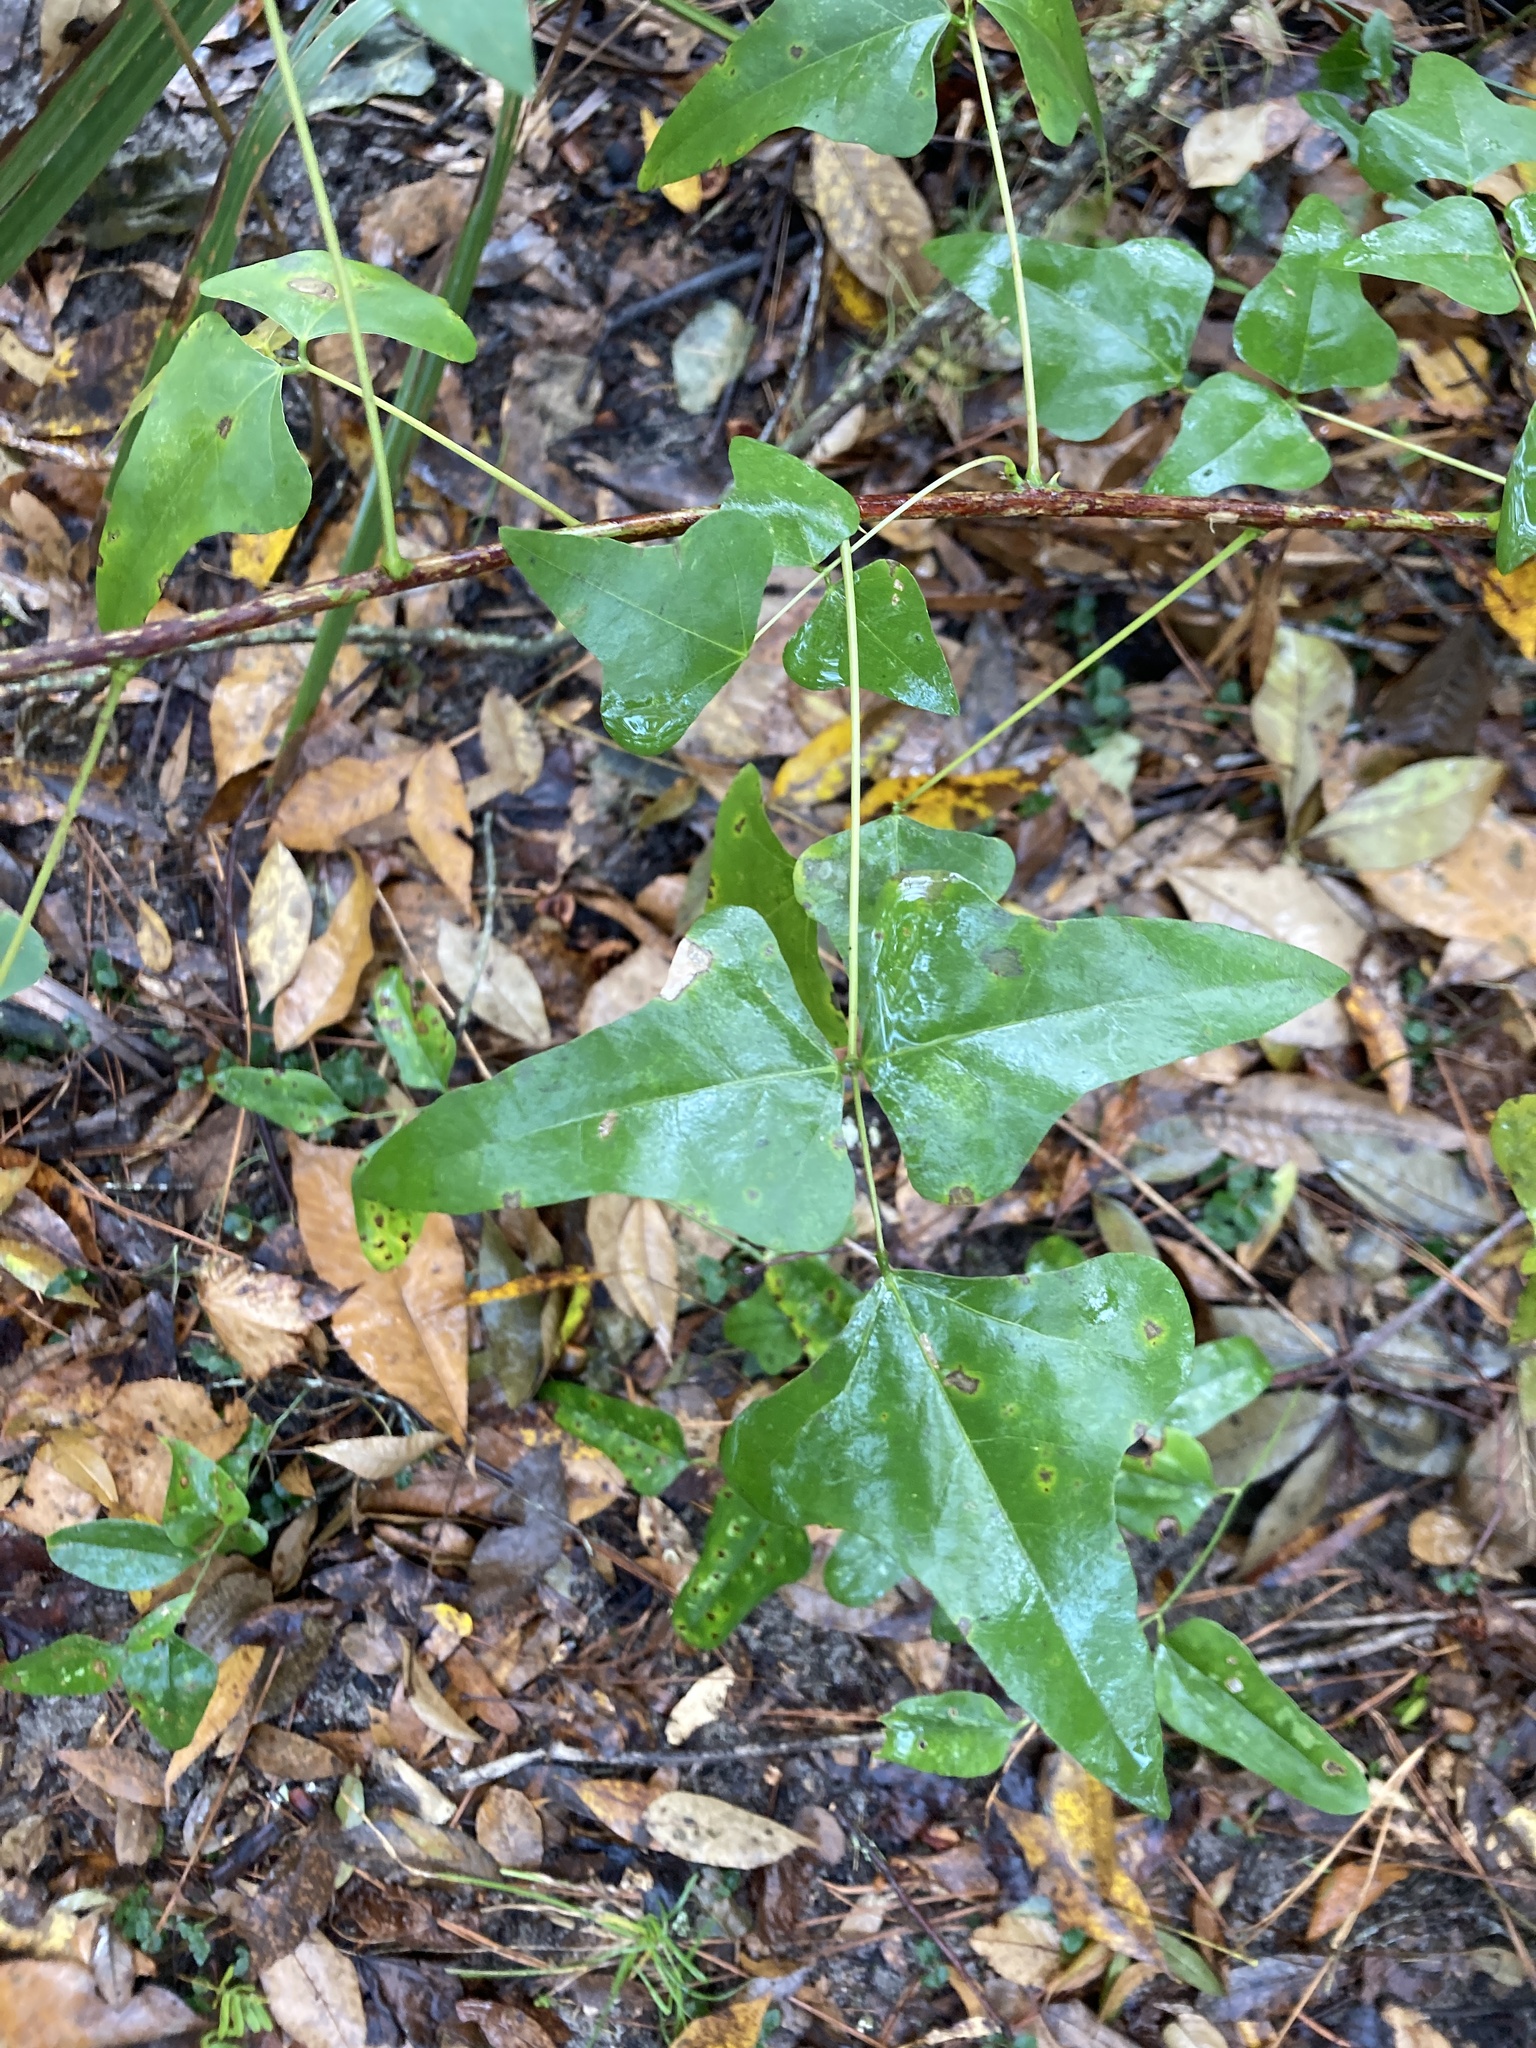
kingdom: Plantae
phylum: Tracheophyta
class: Magnoliopsida
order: Fabales
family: Fabaceae
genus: Erythrina
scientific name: Erythrina herbacea
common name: Coral-bean
